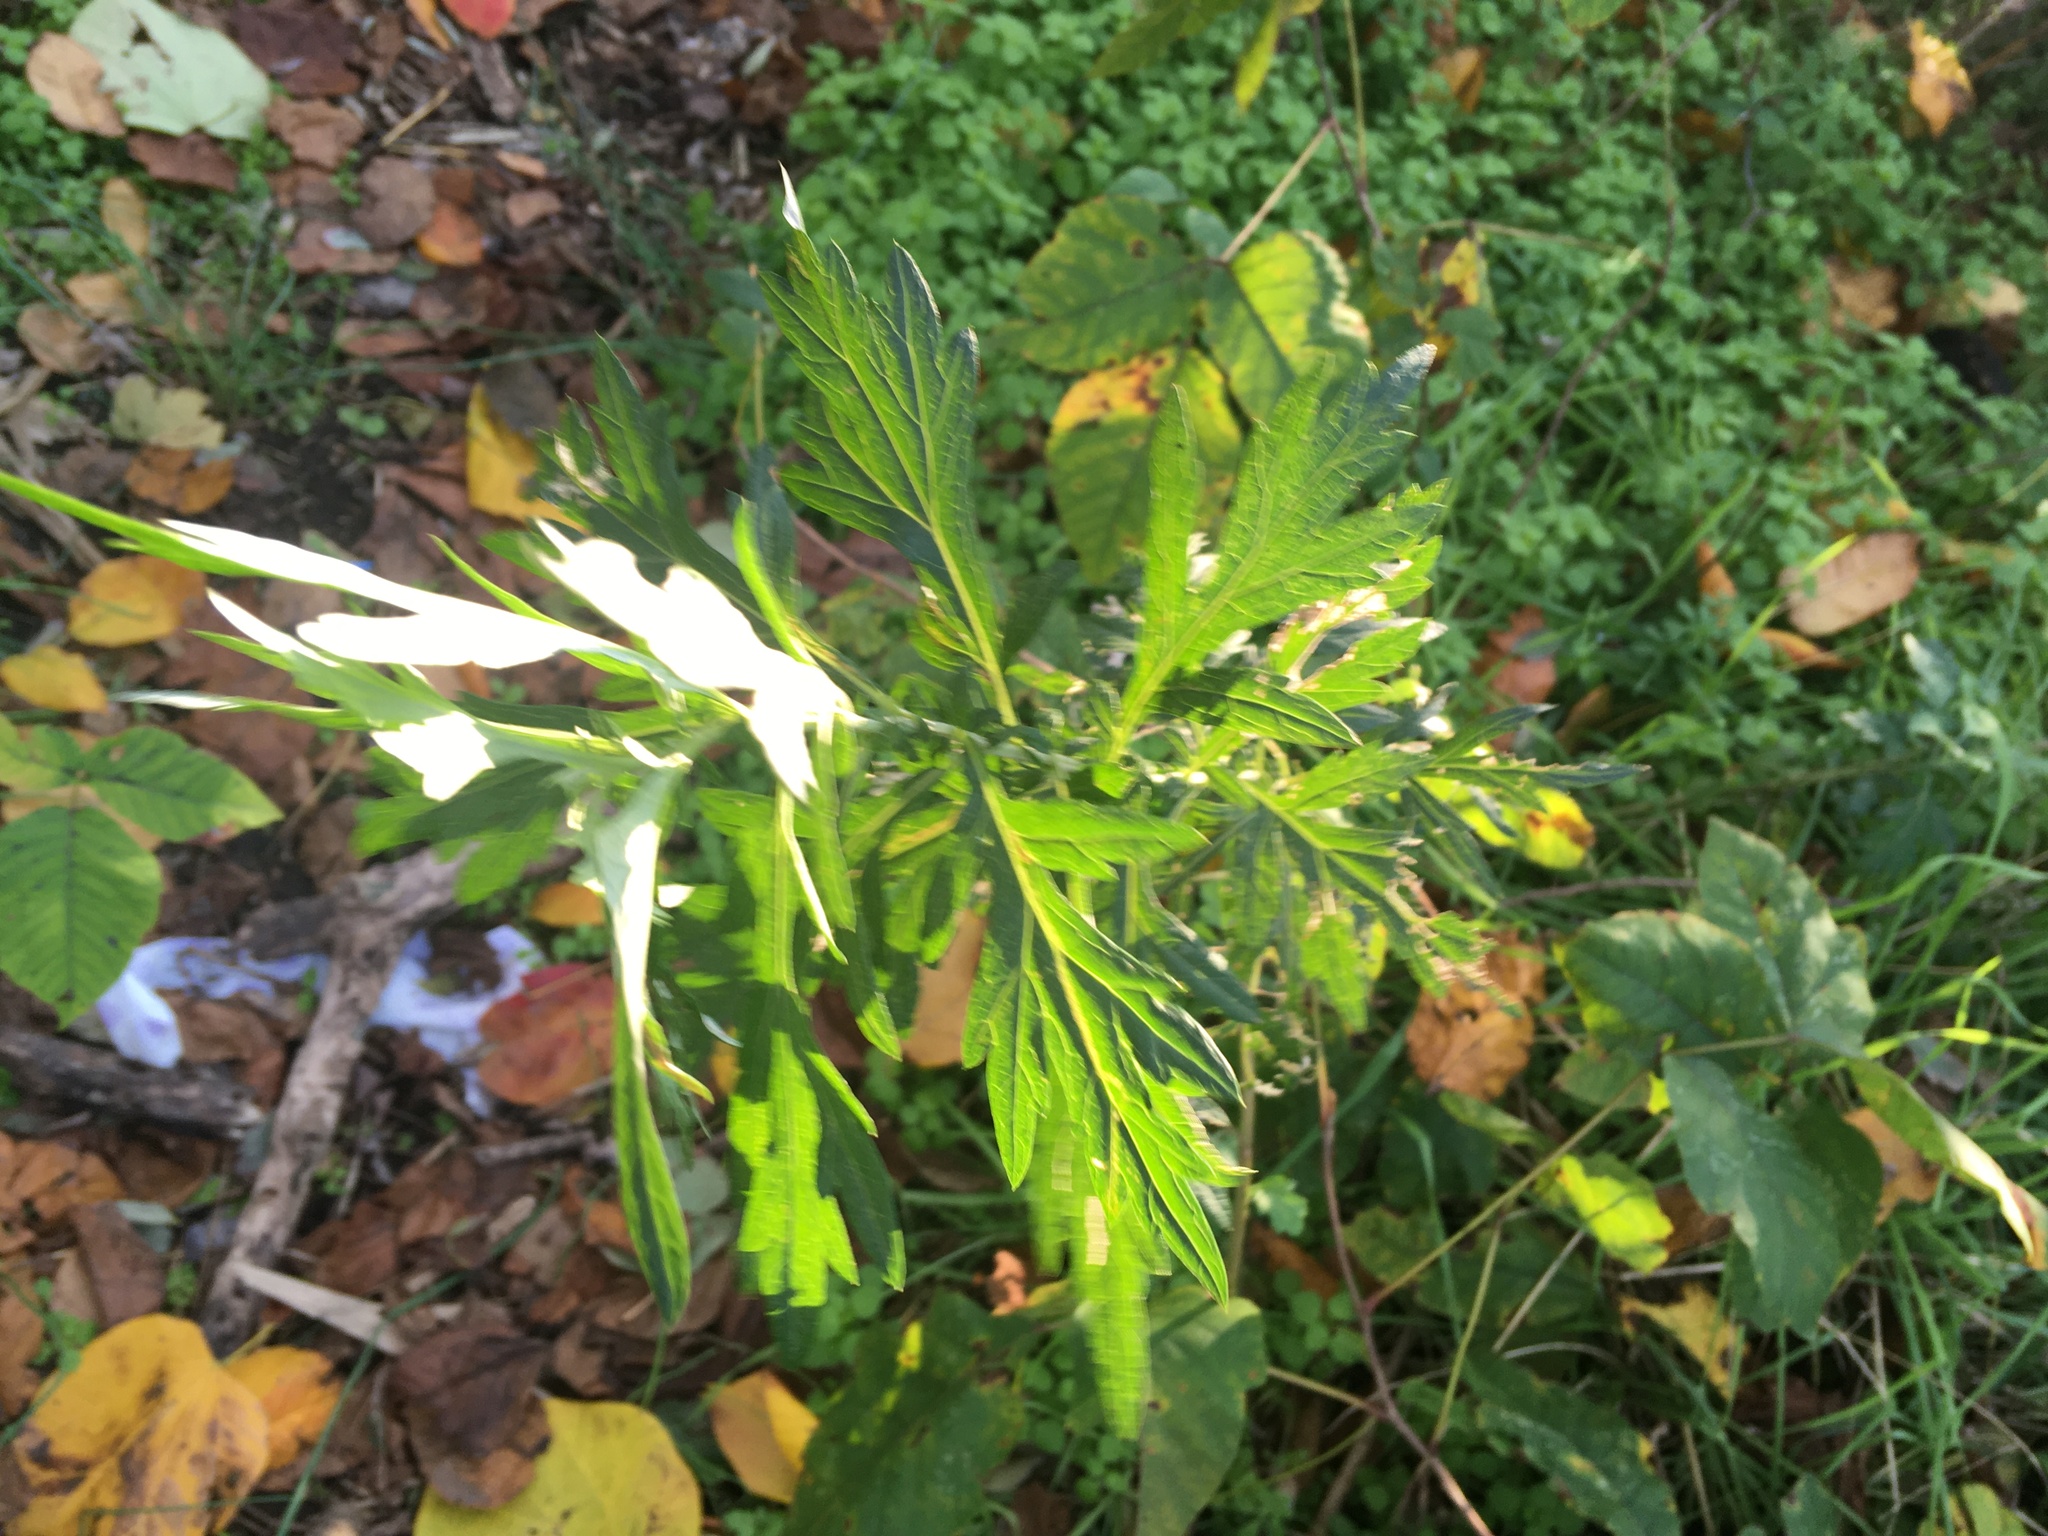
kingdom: Plantae
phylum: Tracheophyta
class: Magnoliopsida
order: Asterales
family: Asteraceae
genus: Artemisia
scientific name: Artemisia vulgaris
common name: Mugwort
